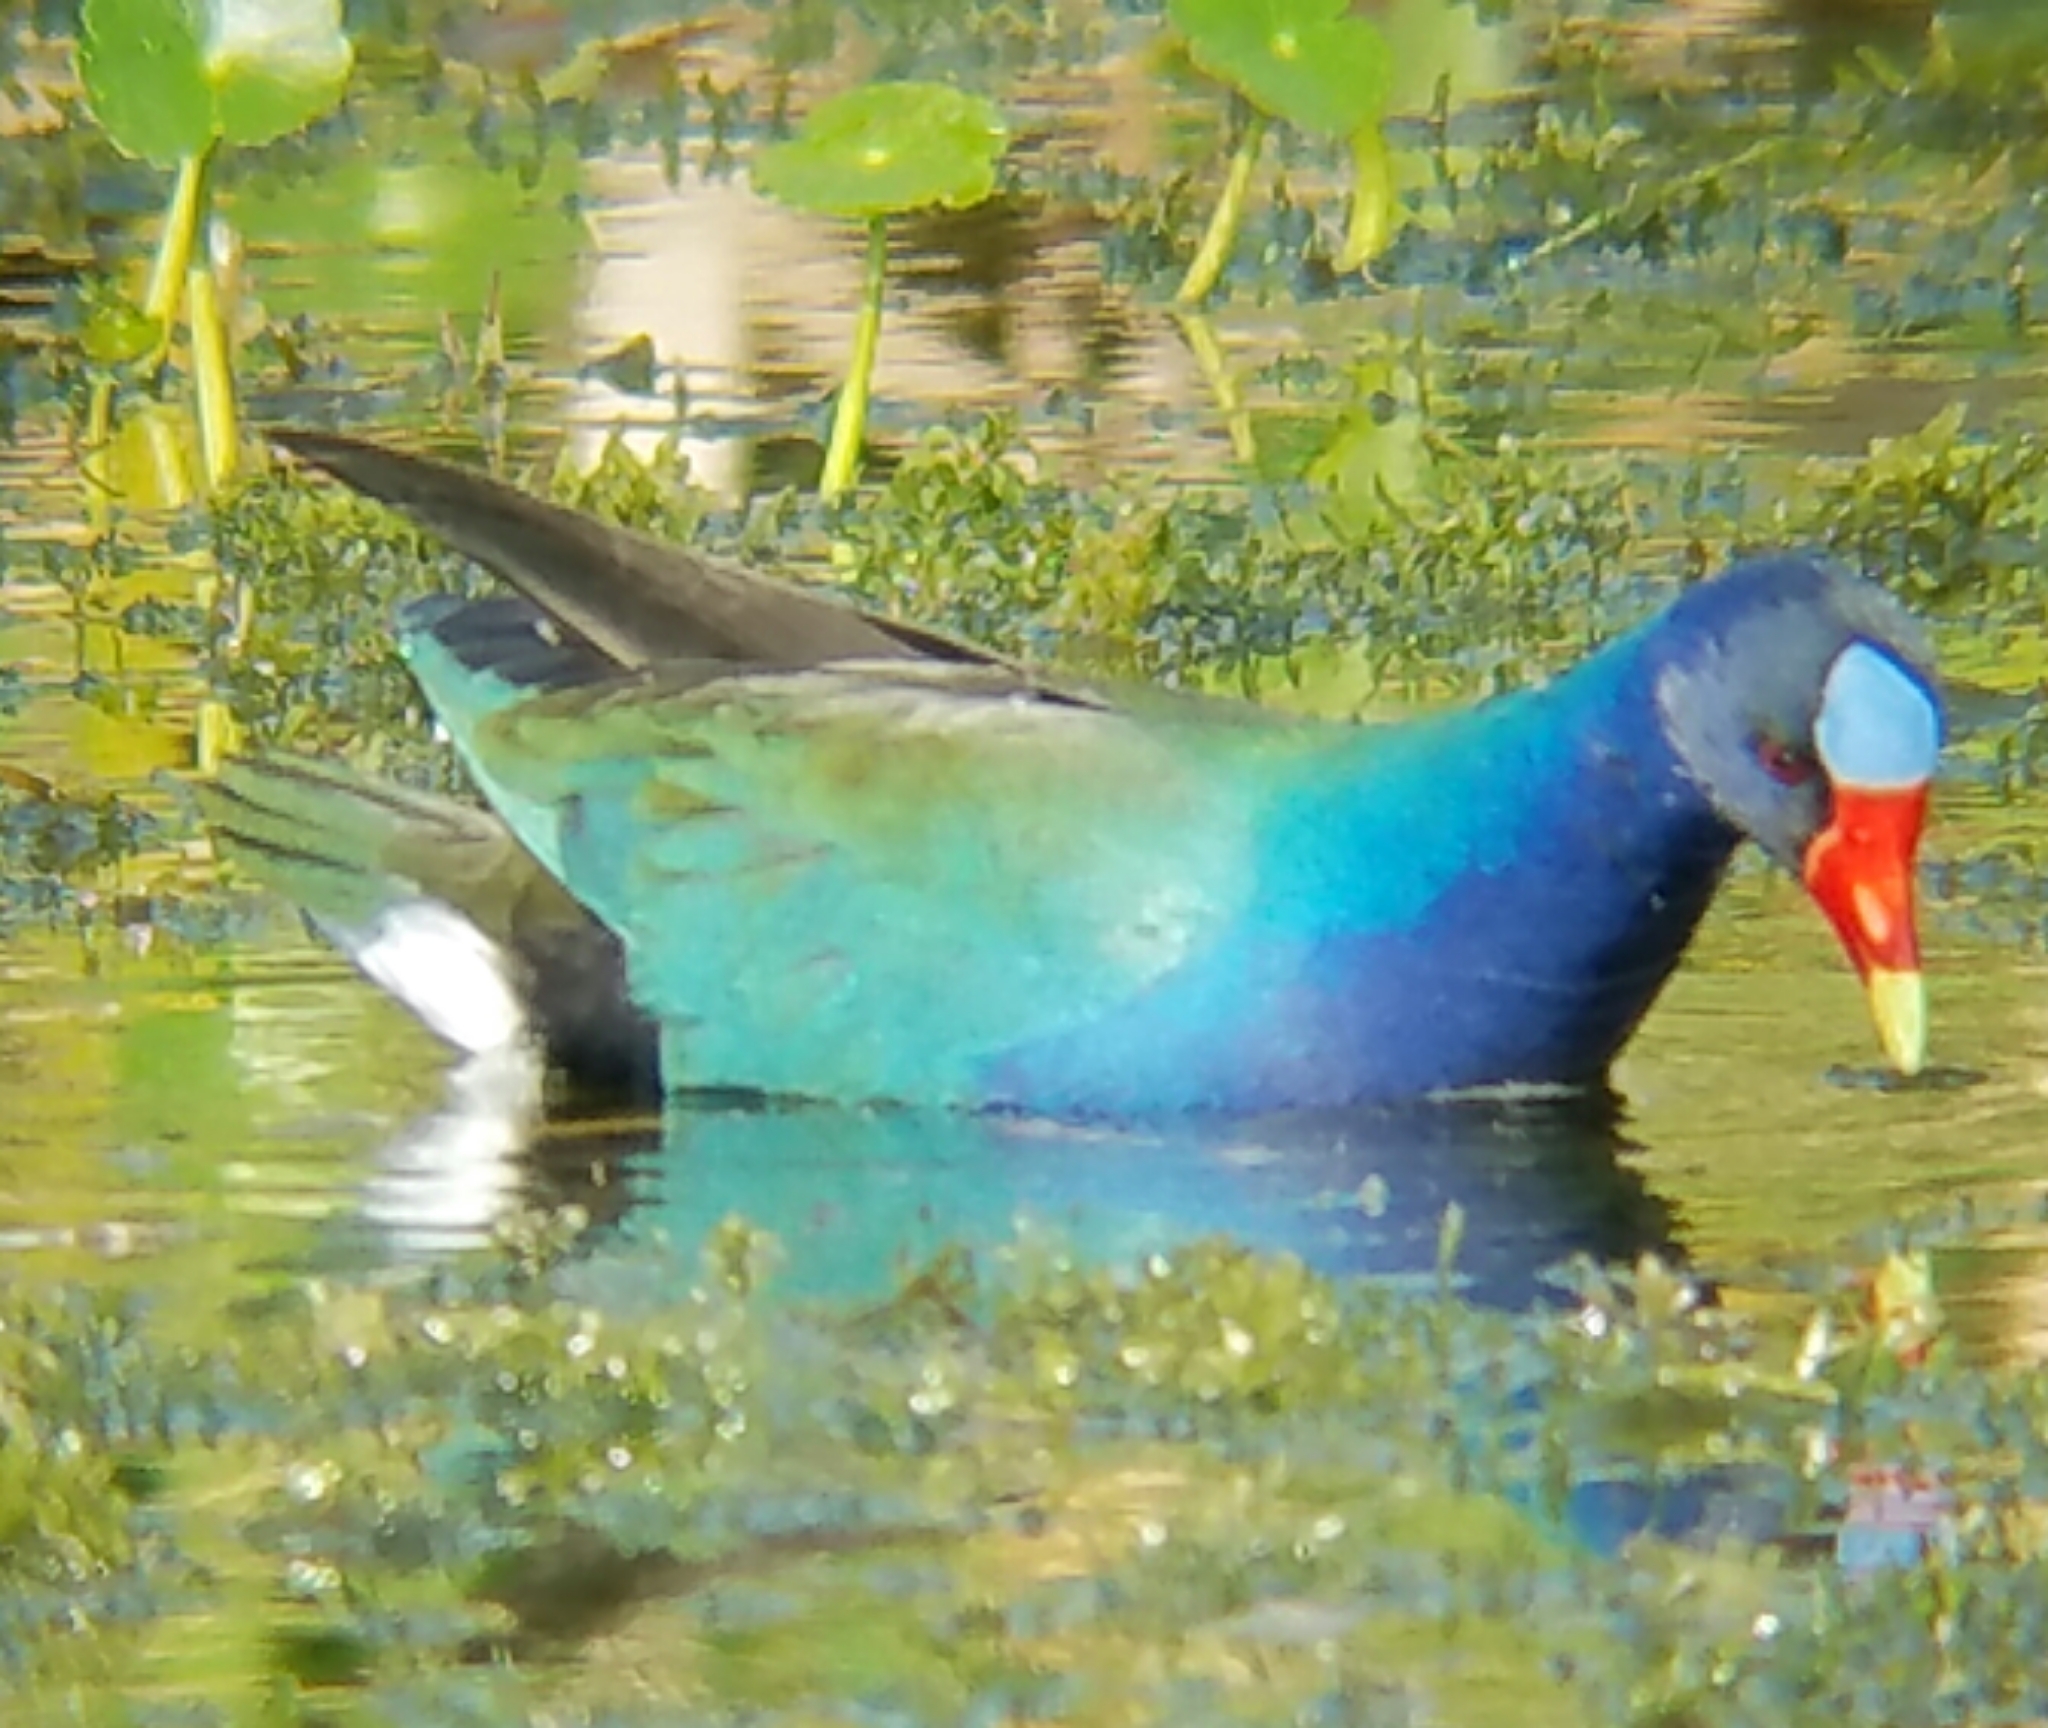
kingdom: Animalia
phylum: Chordata
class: Aves
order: Gruiformes
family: Rallidae
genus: Porphyrio
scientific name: Porphyrio martinica
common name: Purple gallinule
